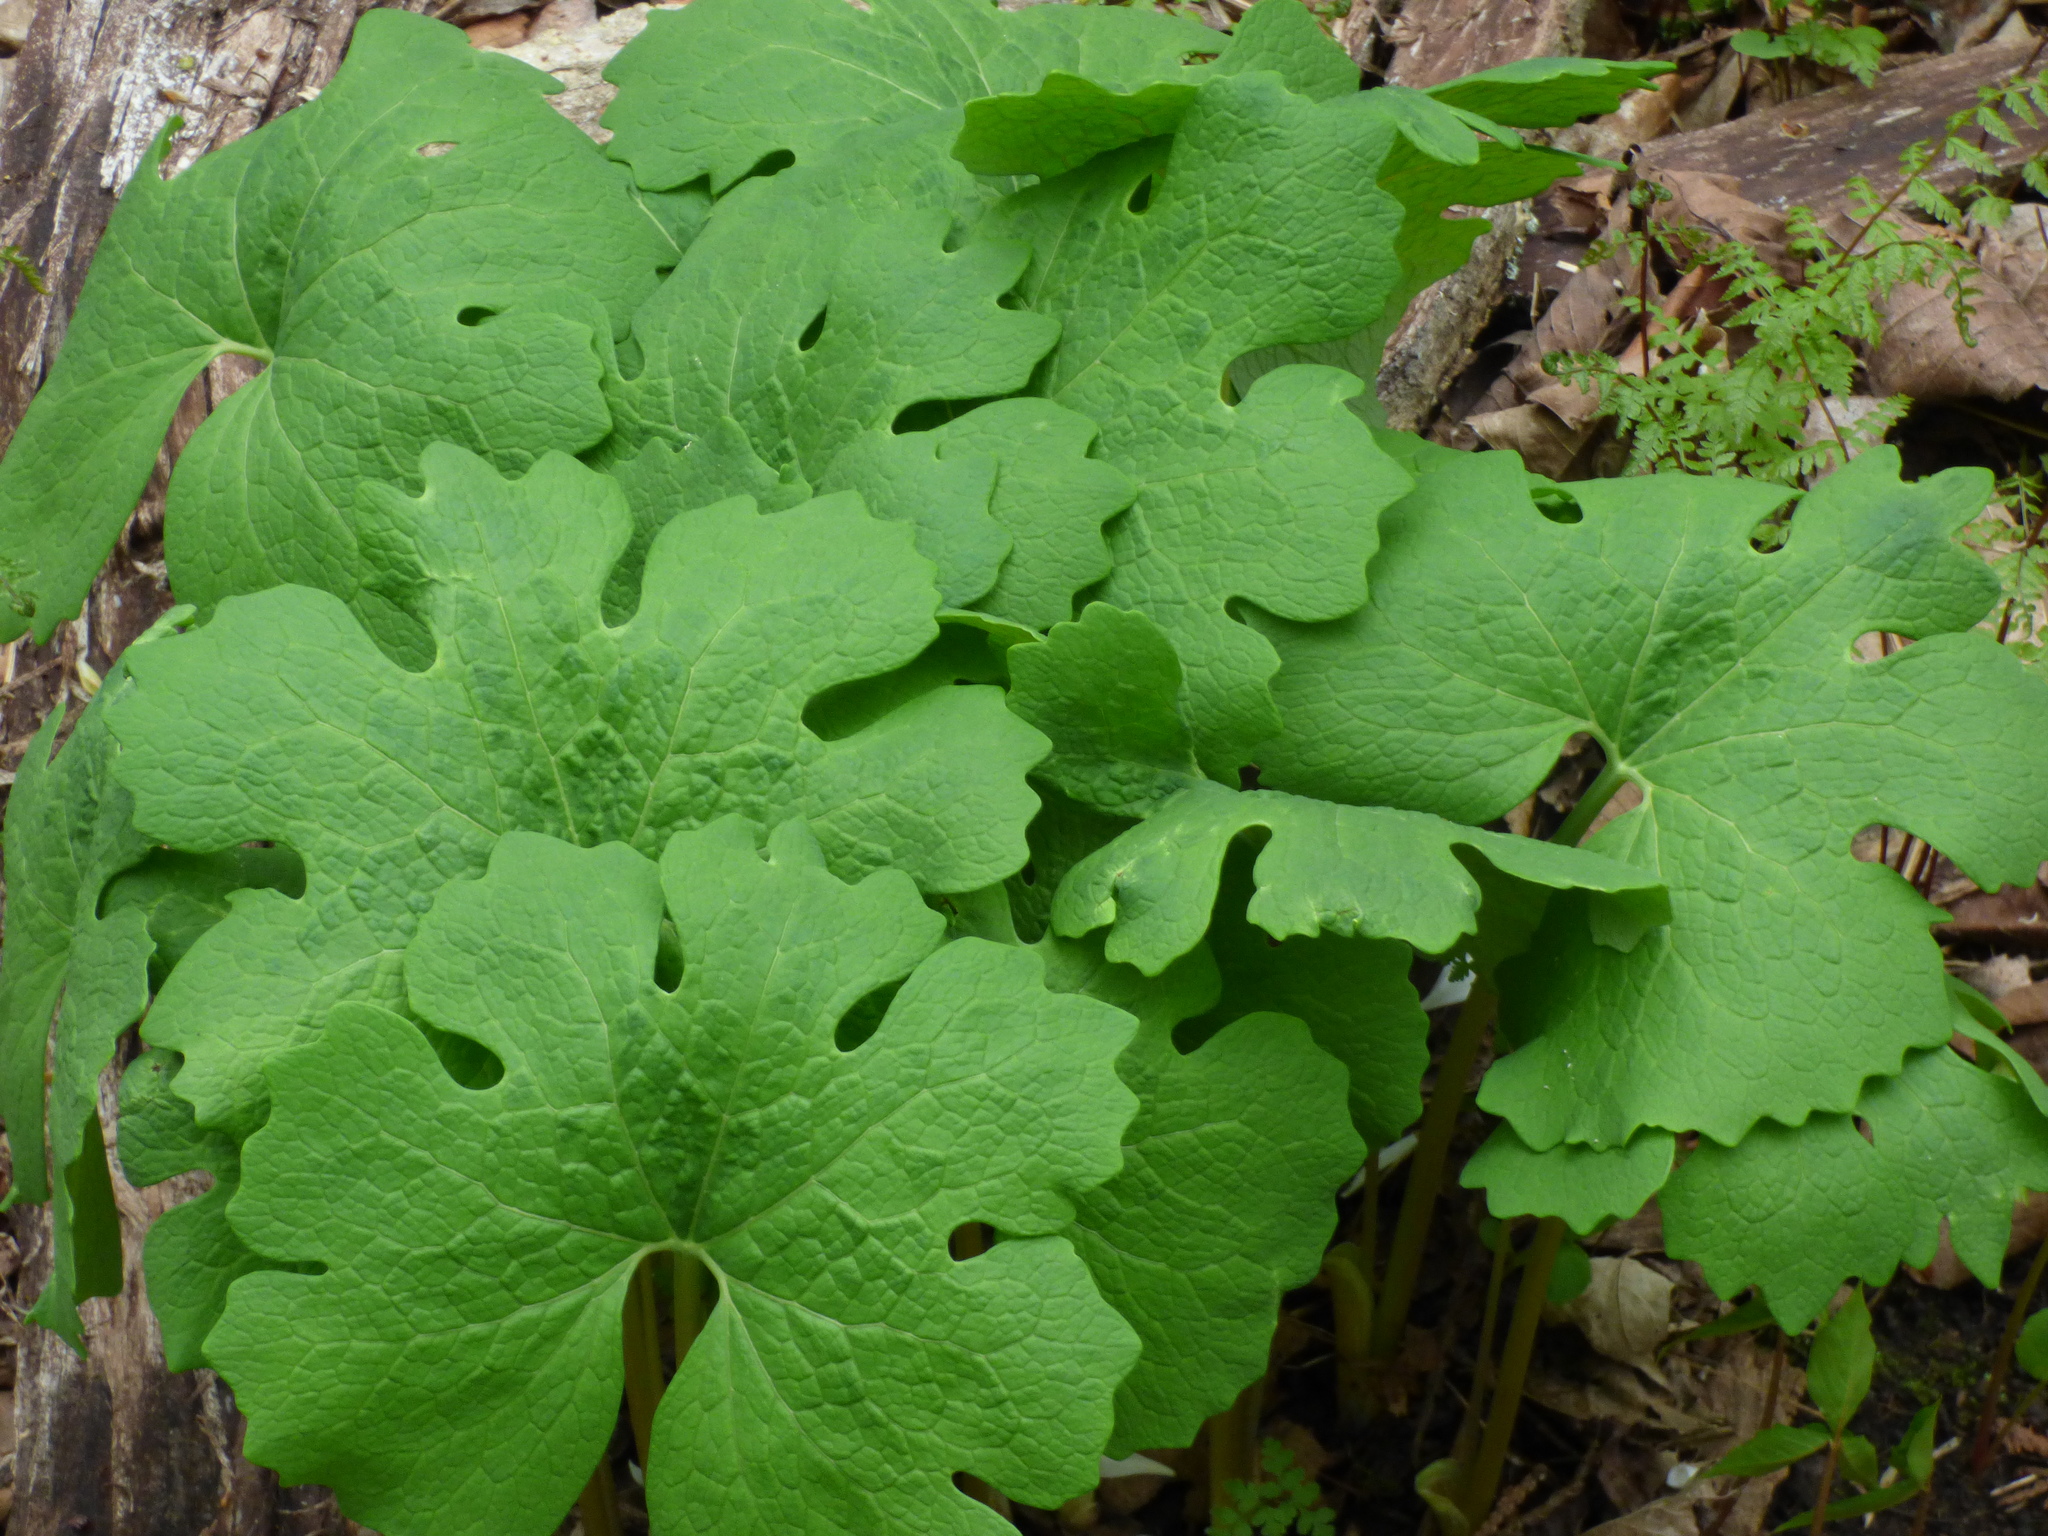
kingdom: Plantae
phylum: Tracheophyta
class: Magnoliopsida
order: Ranunculales
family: Papaveraceae
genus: Sanguinaria
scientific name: Sanguinaria canadensis
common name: Bloodroot
